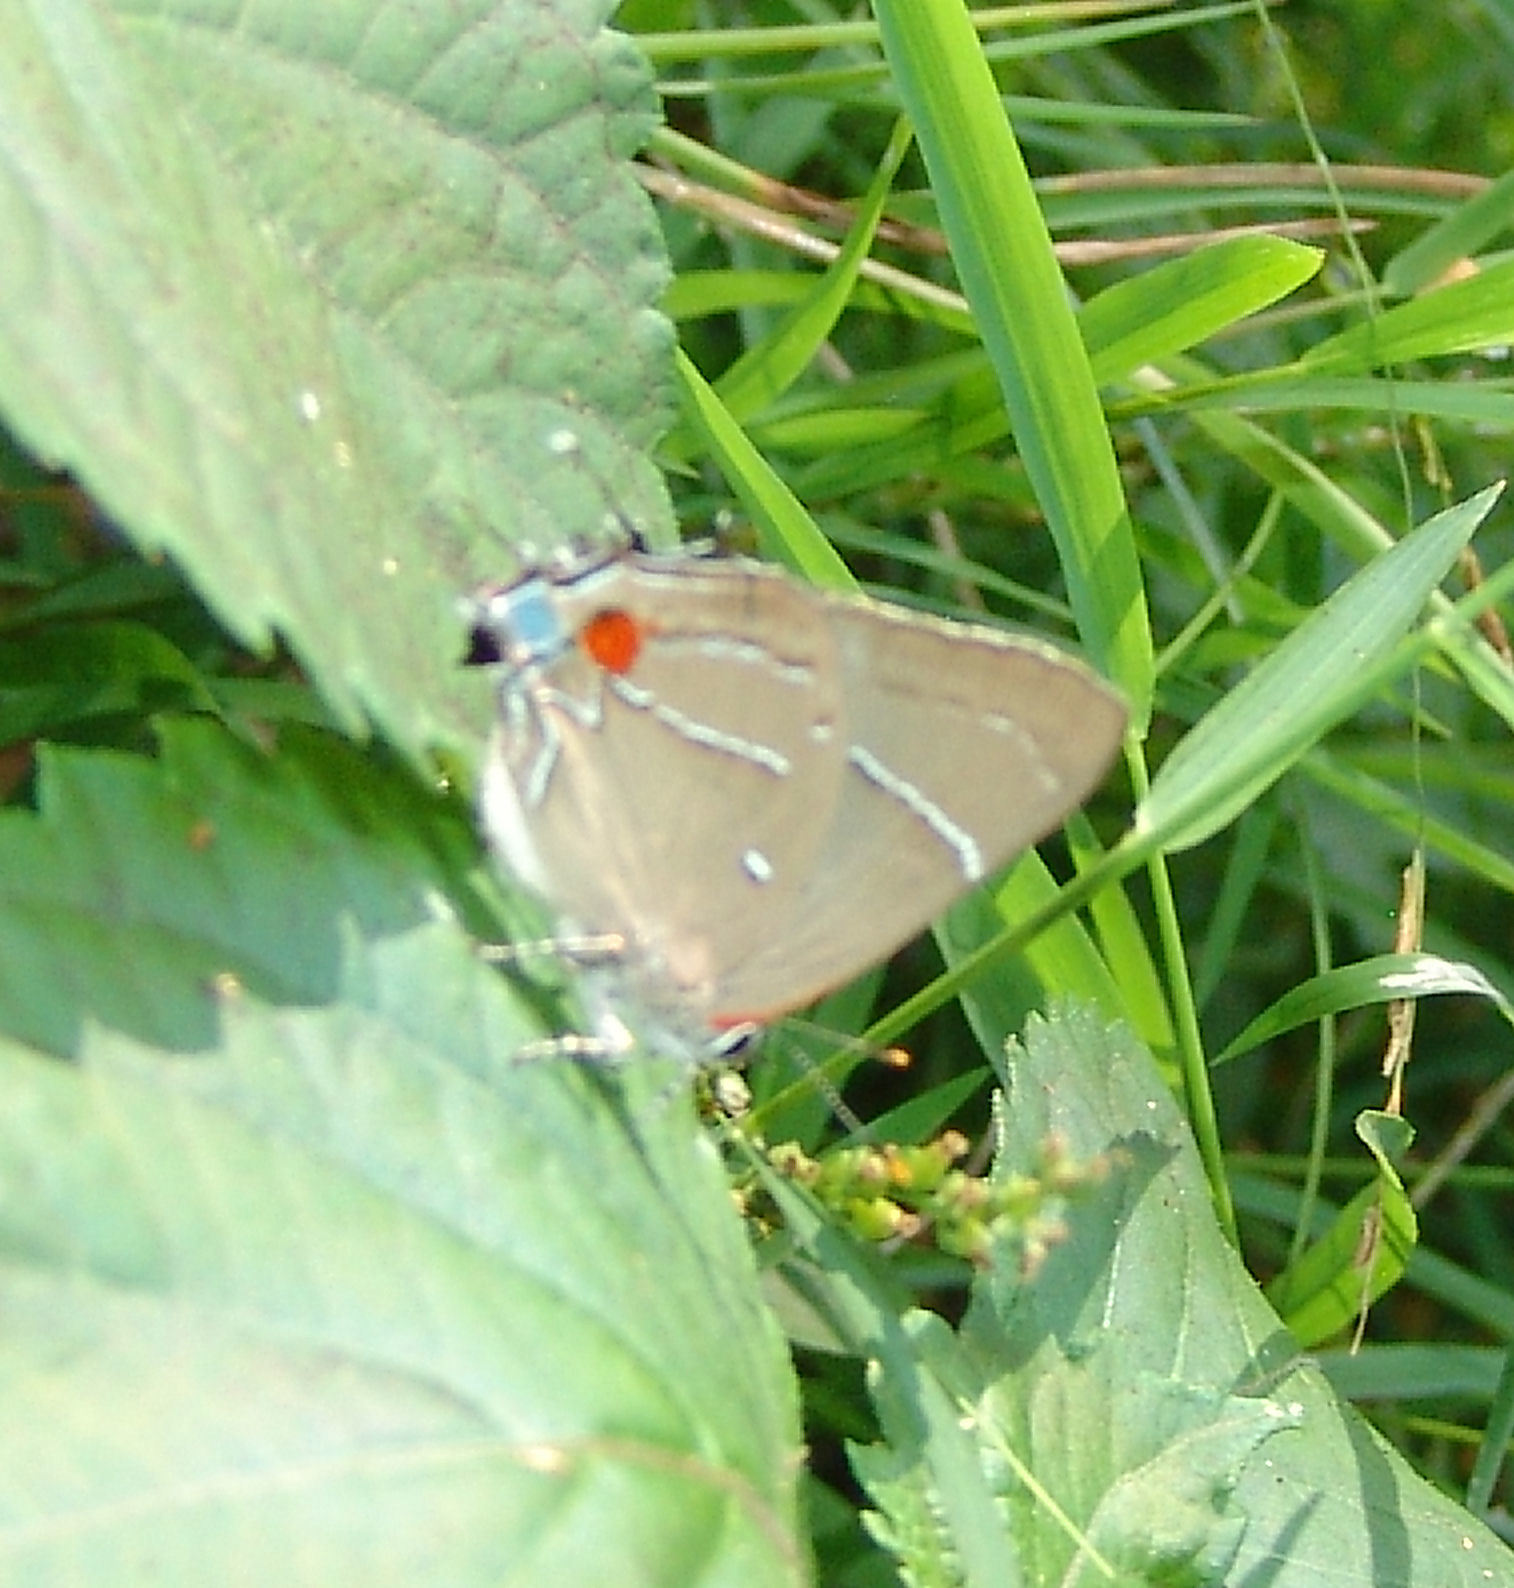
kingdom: Animalia
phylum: Arthropoda
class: Insecta
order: Lepidoptera
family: Lycaenidae
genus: Parrhasius
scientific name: Parrhasius m-album
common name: White m hairstreak
